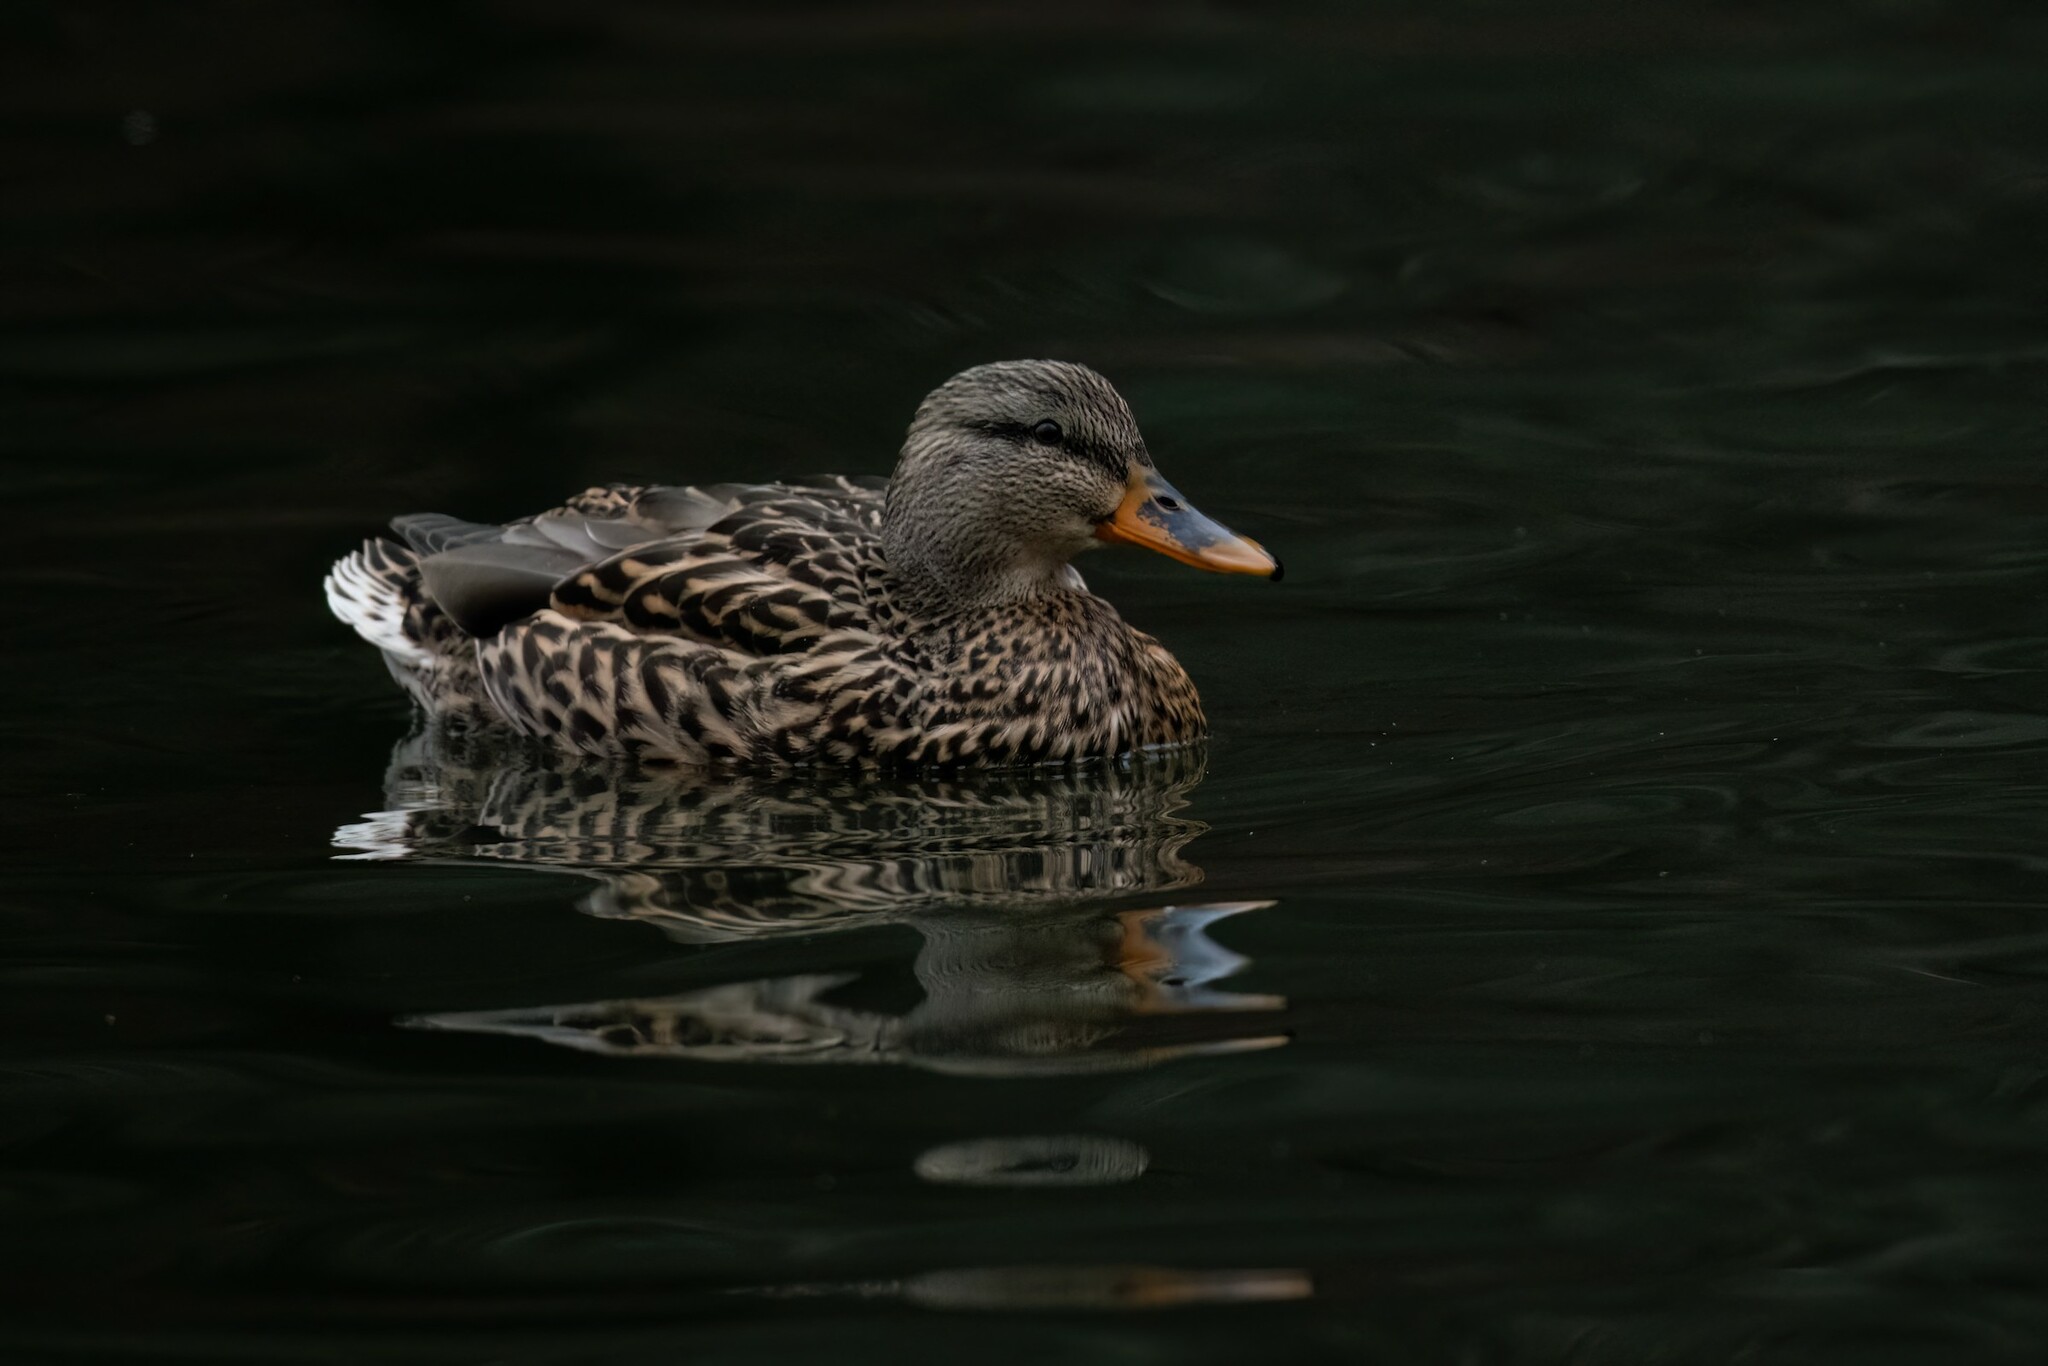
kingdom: Animalia
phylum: Chordata
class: Aves
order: Anseriformes
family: Anatidae
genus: Anas
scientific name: Anas platyrhynchos
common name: Mallard
